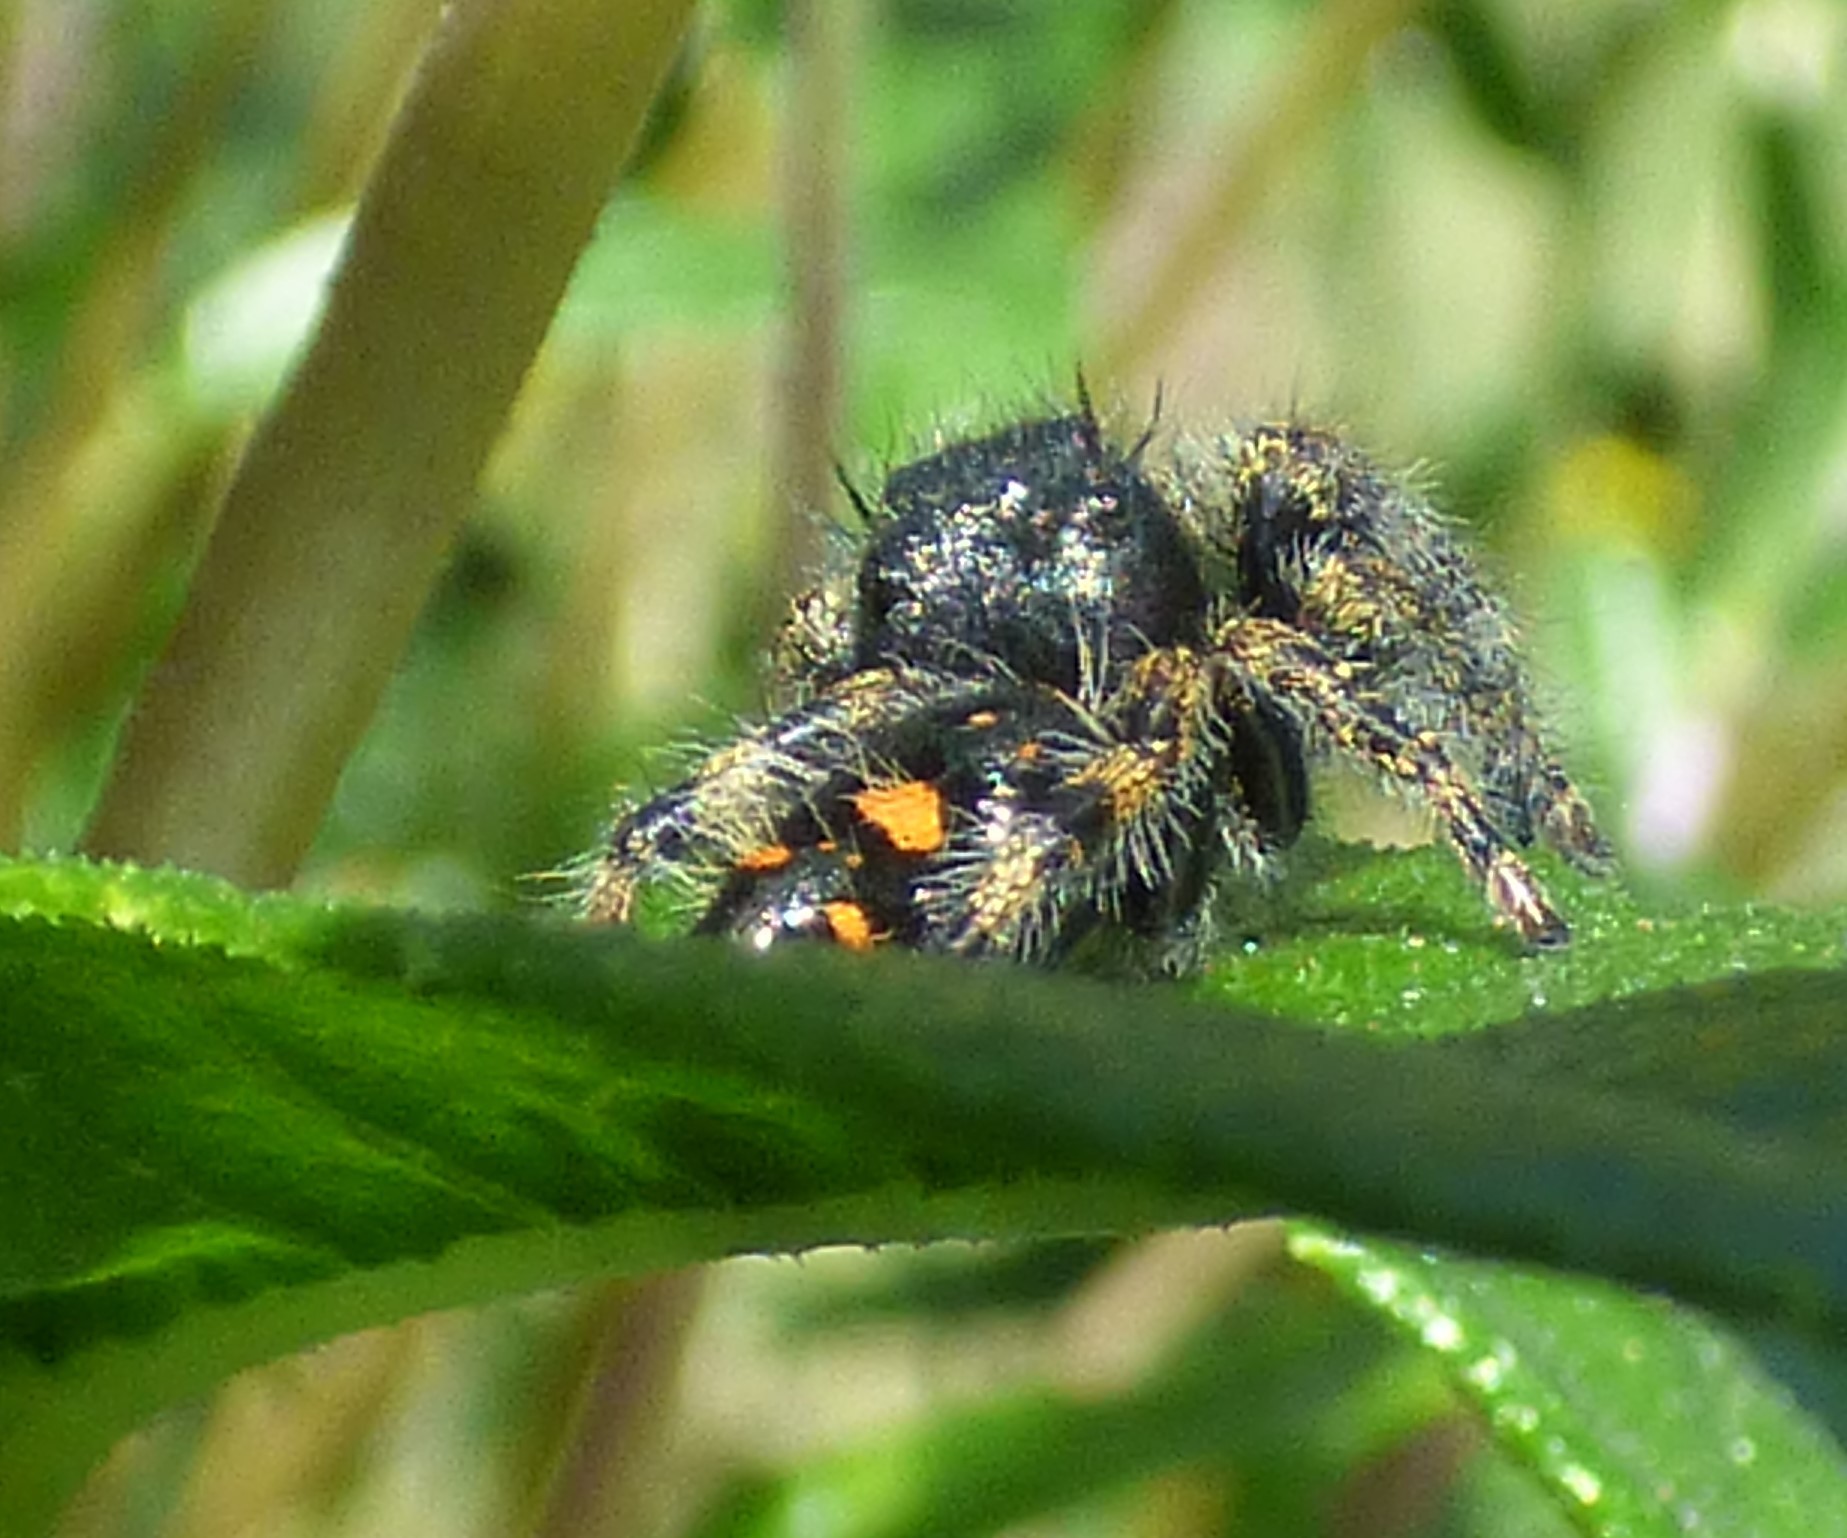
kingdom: Animalia
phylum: Arthropoda
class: Arachnida
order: Araneae
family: Salticidae
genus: Phidippus
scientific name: Phidippus audax
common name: Bold jumper
